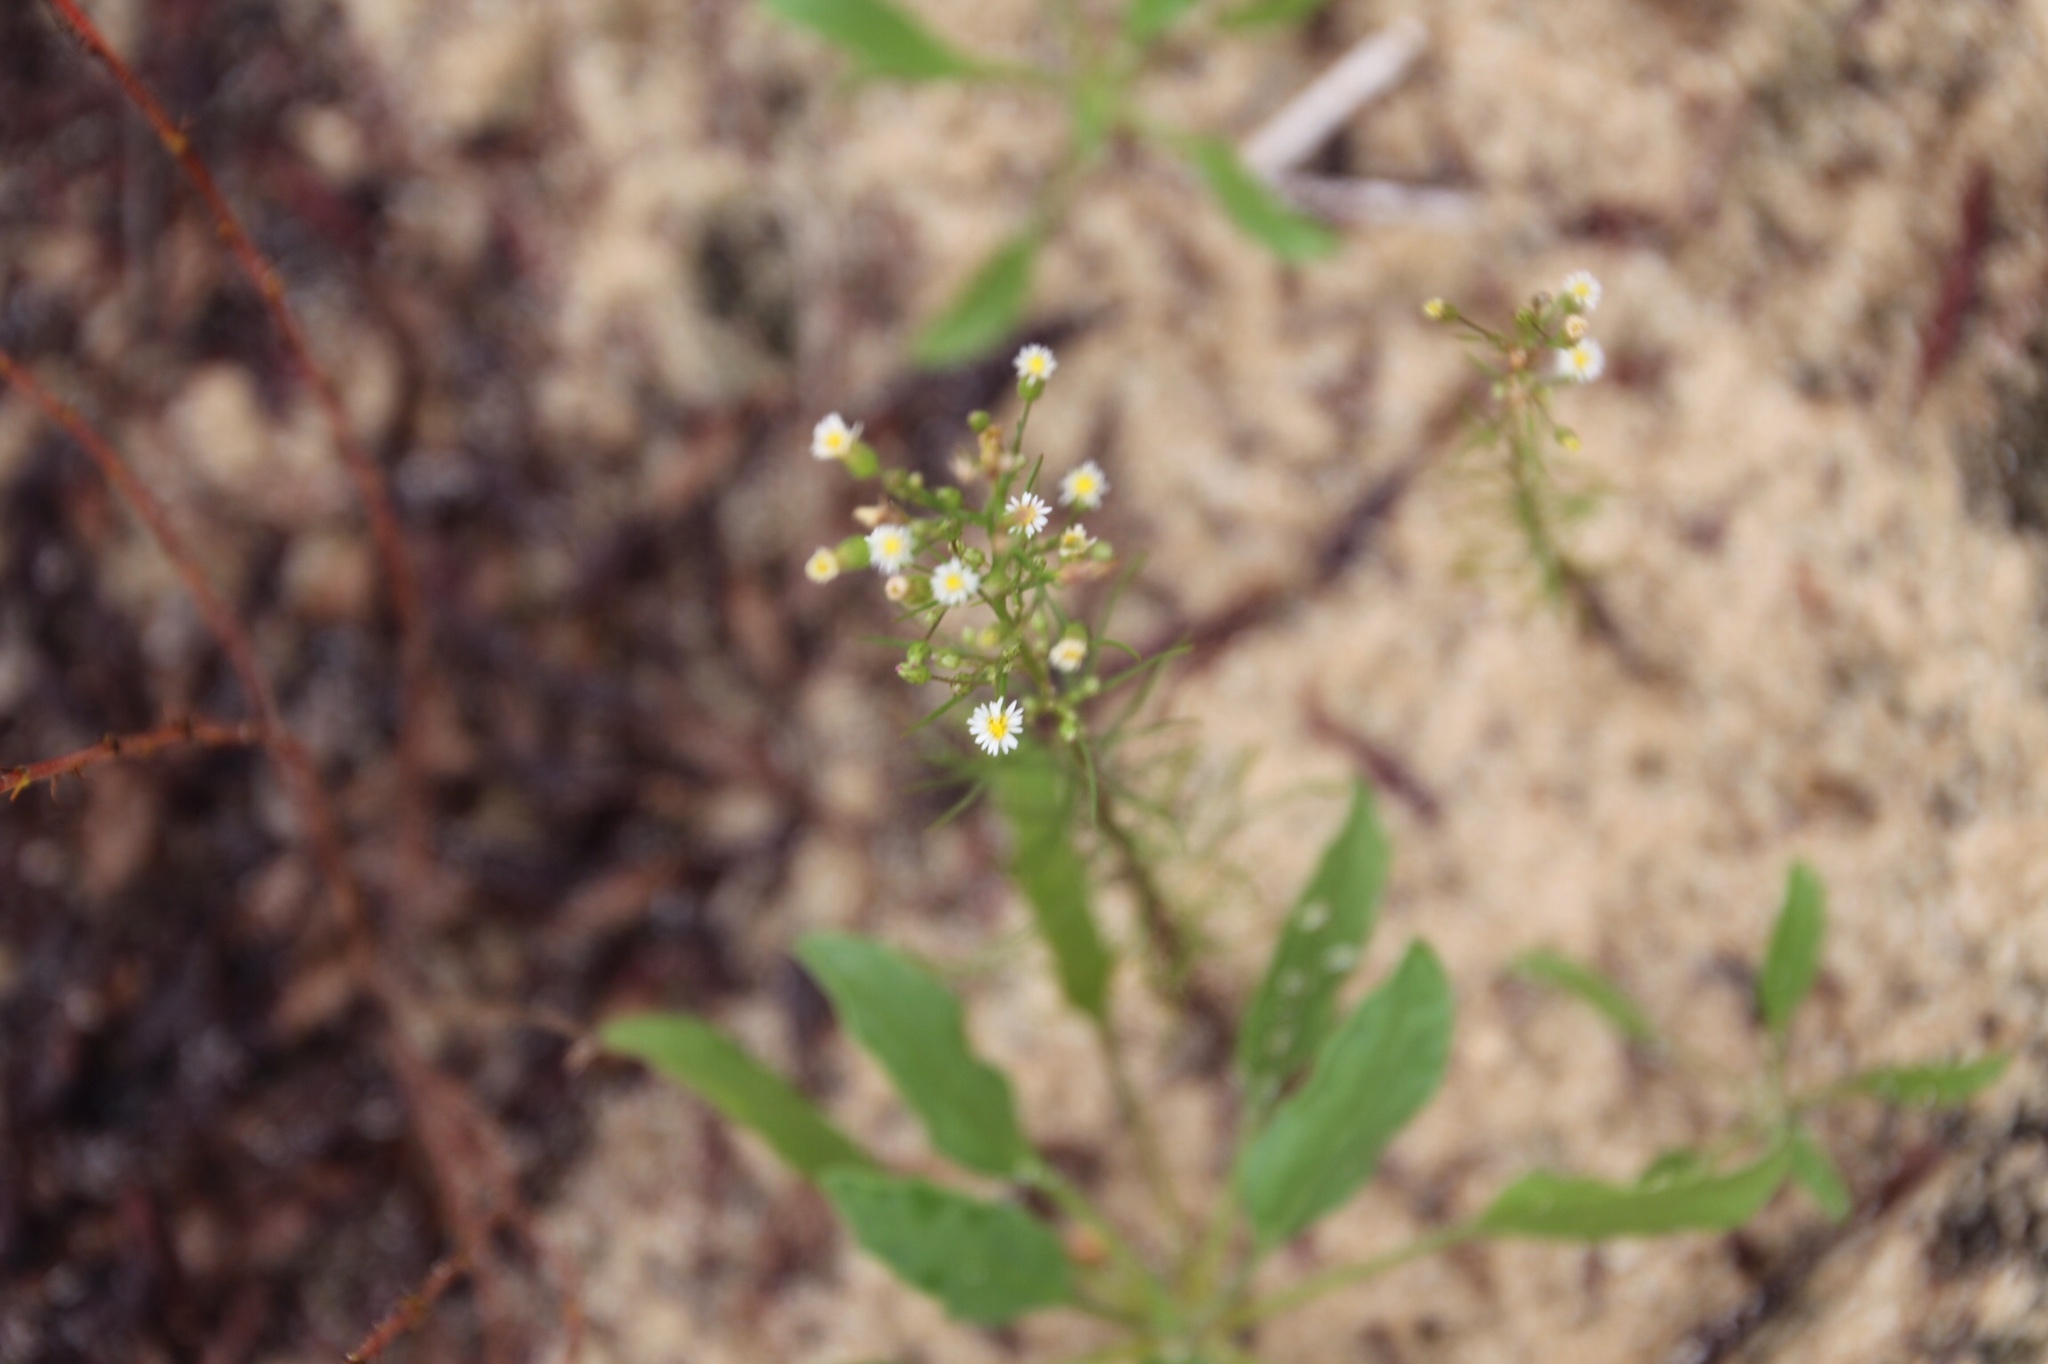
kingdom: Plantae
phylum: Tracheophyta
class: Magnoliopsida
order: Asterales
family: Asteraceae
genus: Erigeron
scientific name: Erigeron canadensis
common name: Canadian fleabane
